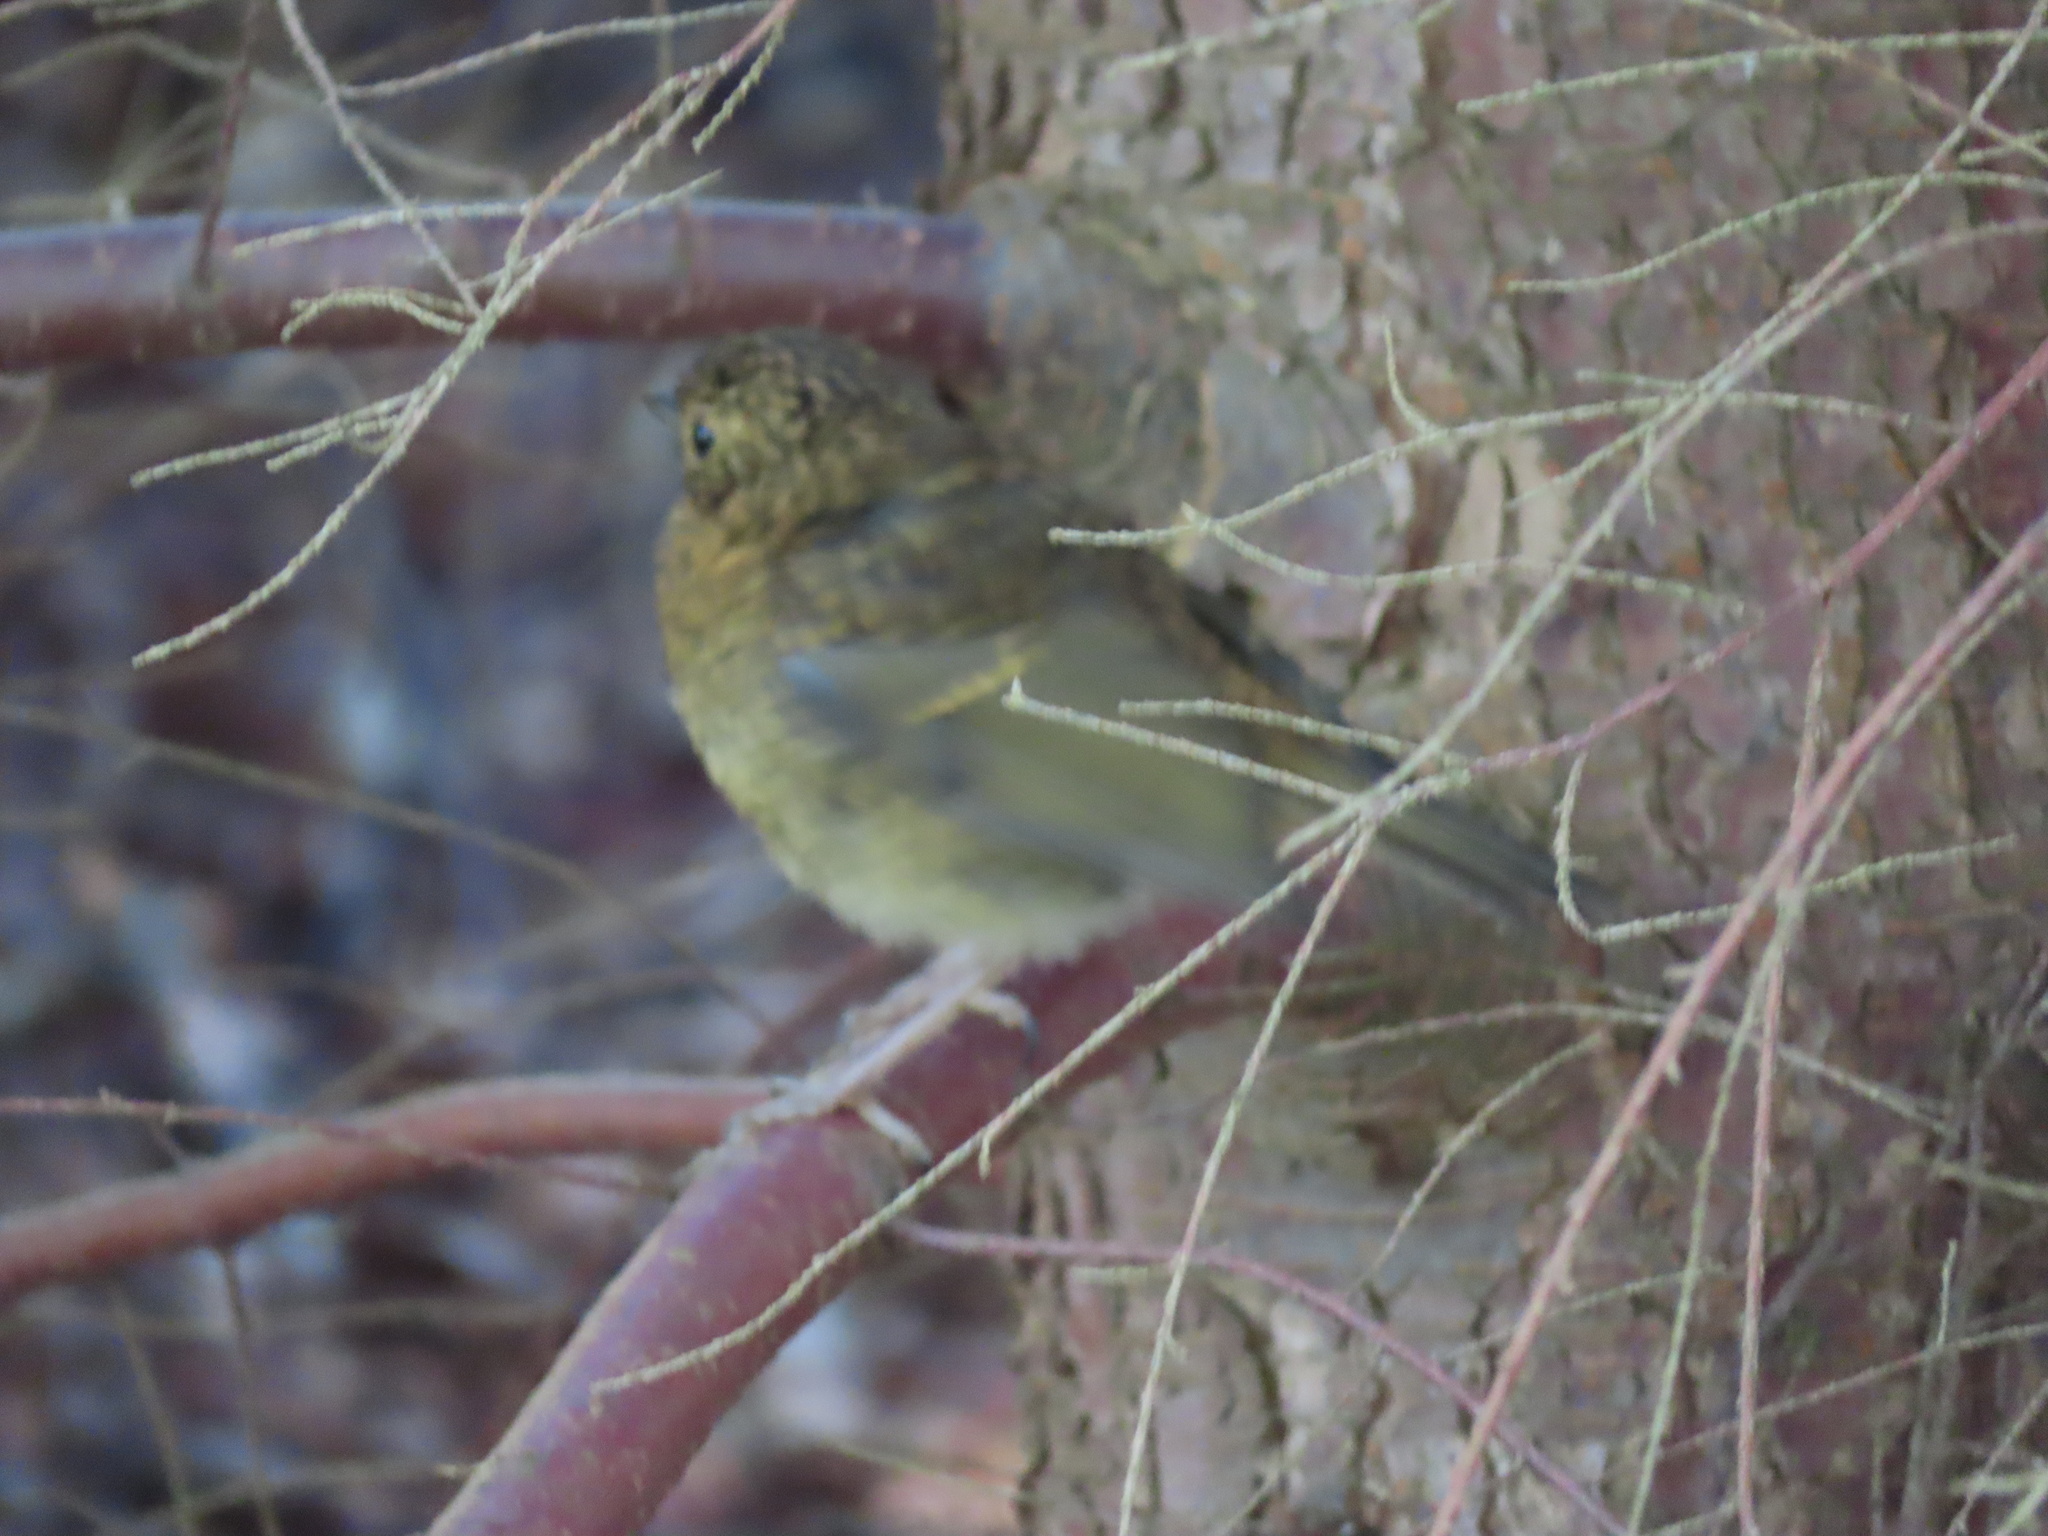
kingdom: Animalia
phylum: Chordata
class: Aves
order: Passeriformes
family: Muscicapidae
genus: Erithacus
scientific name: Erithacus rubecula
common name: European robin
